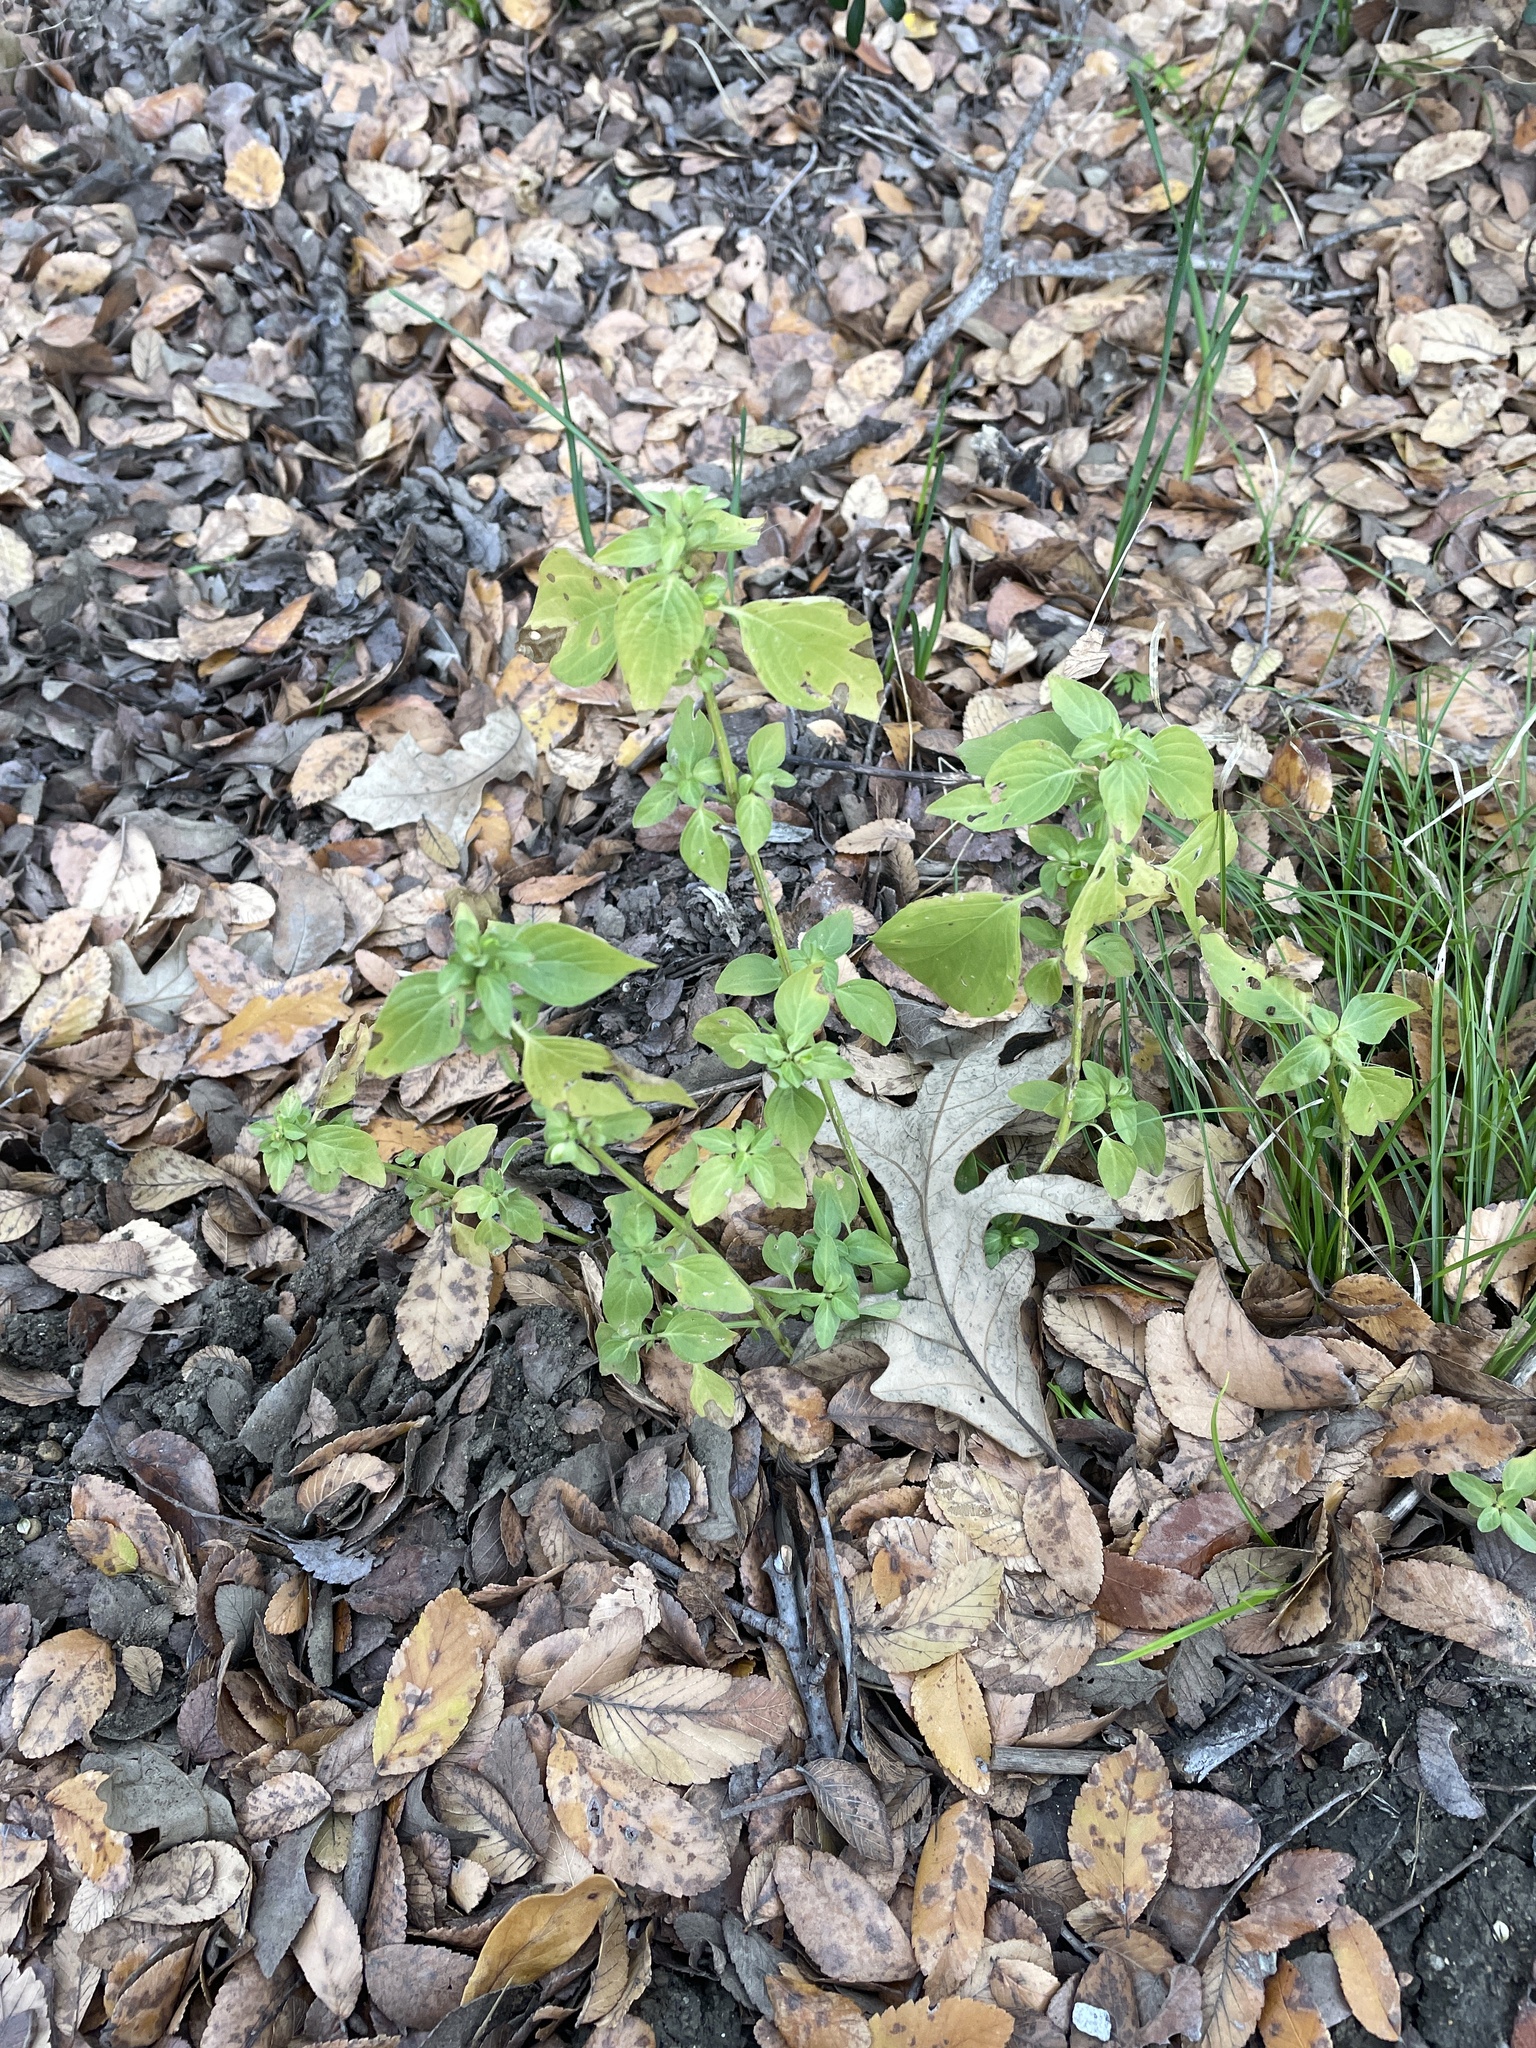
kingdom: Plantae
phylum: Tracheophyta
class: Magnoliopsida
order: Lamiales
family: Acanthaceae
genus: Dicliptera
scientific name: Dicliptera brachiata
